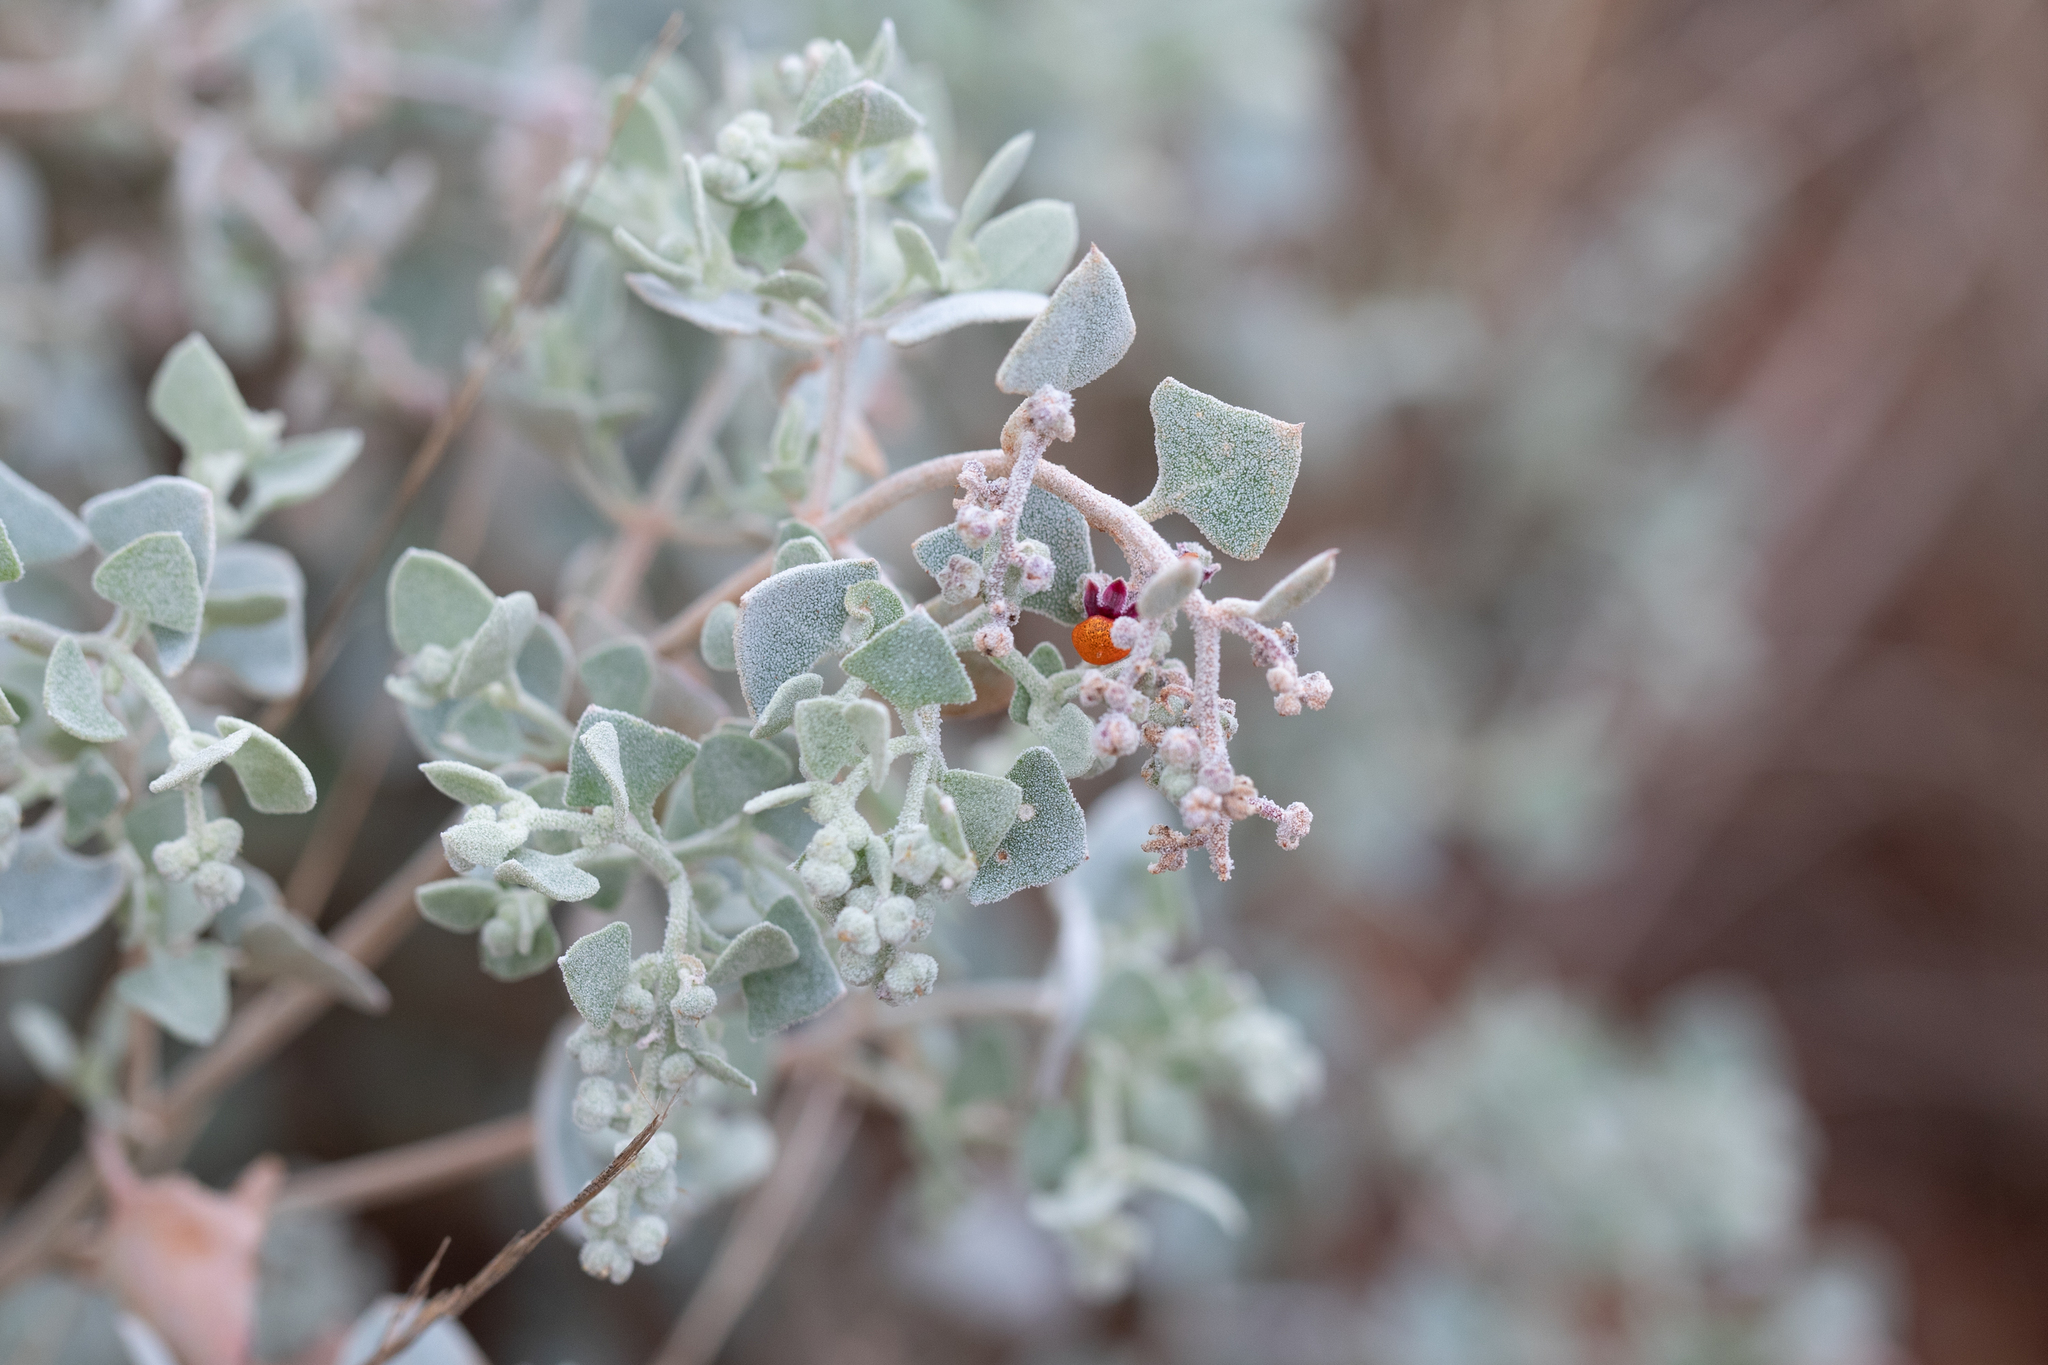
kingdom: Plantae
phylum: Tracheophyta
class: Magnoliopsida
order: Caryophyllales
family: Amaranthaceae
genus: Chenopodium
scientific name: Chenopodium curvispicatum
